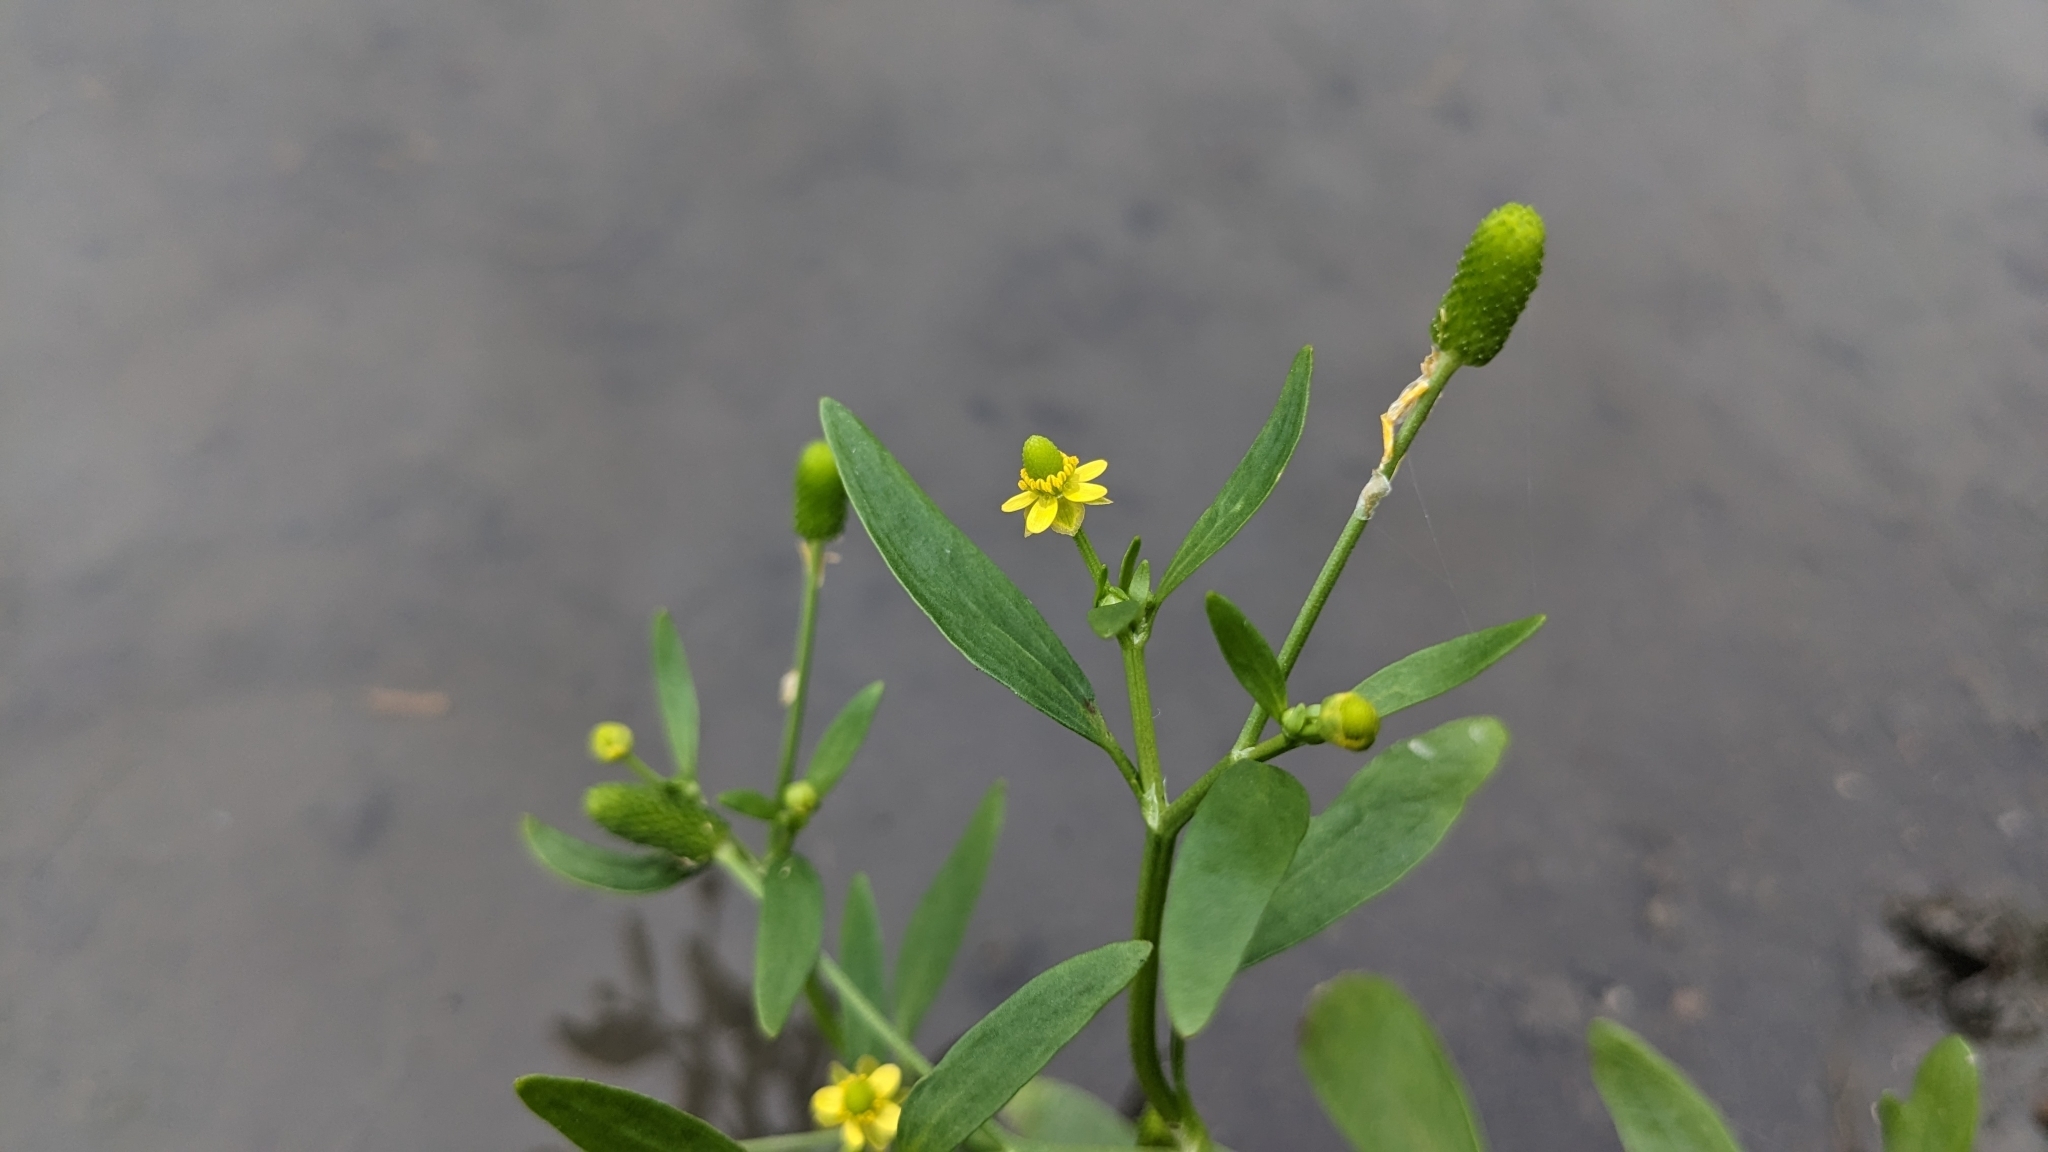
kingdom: Plantae
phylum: Tracheophyta
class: Magnoliopsida
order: Ranunculales
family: Ranunculaceae
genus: Ranunculus
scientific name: Ranunculus sceleratus
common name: Celery-leaved buttercup
